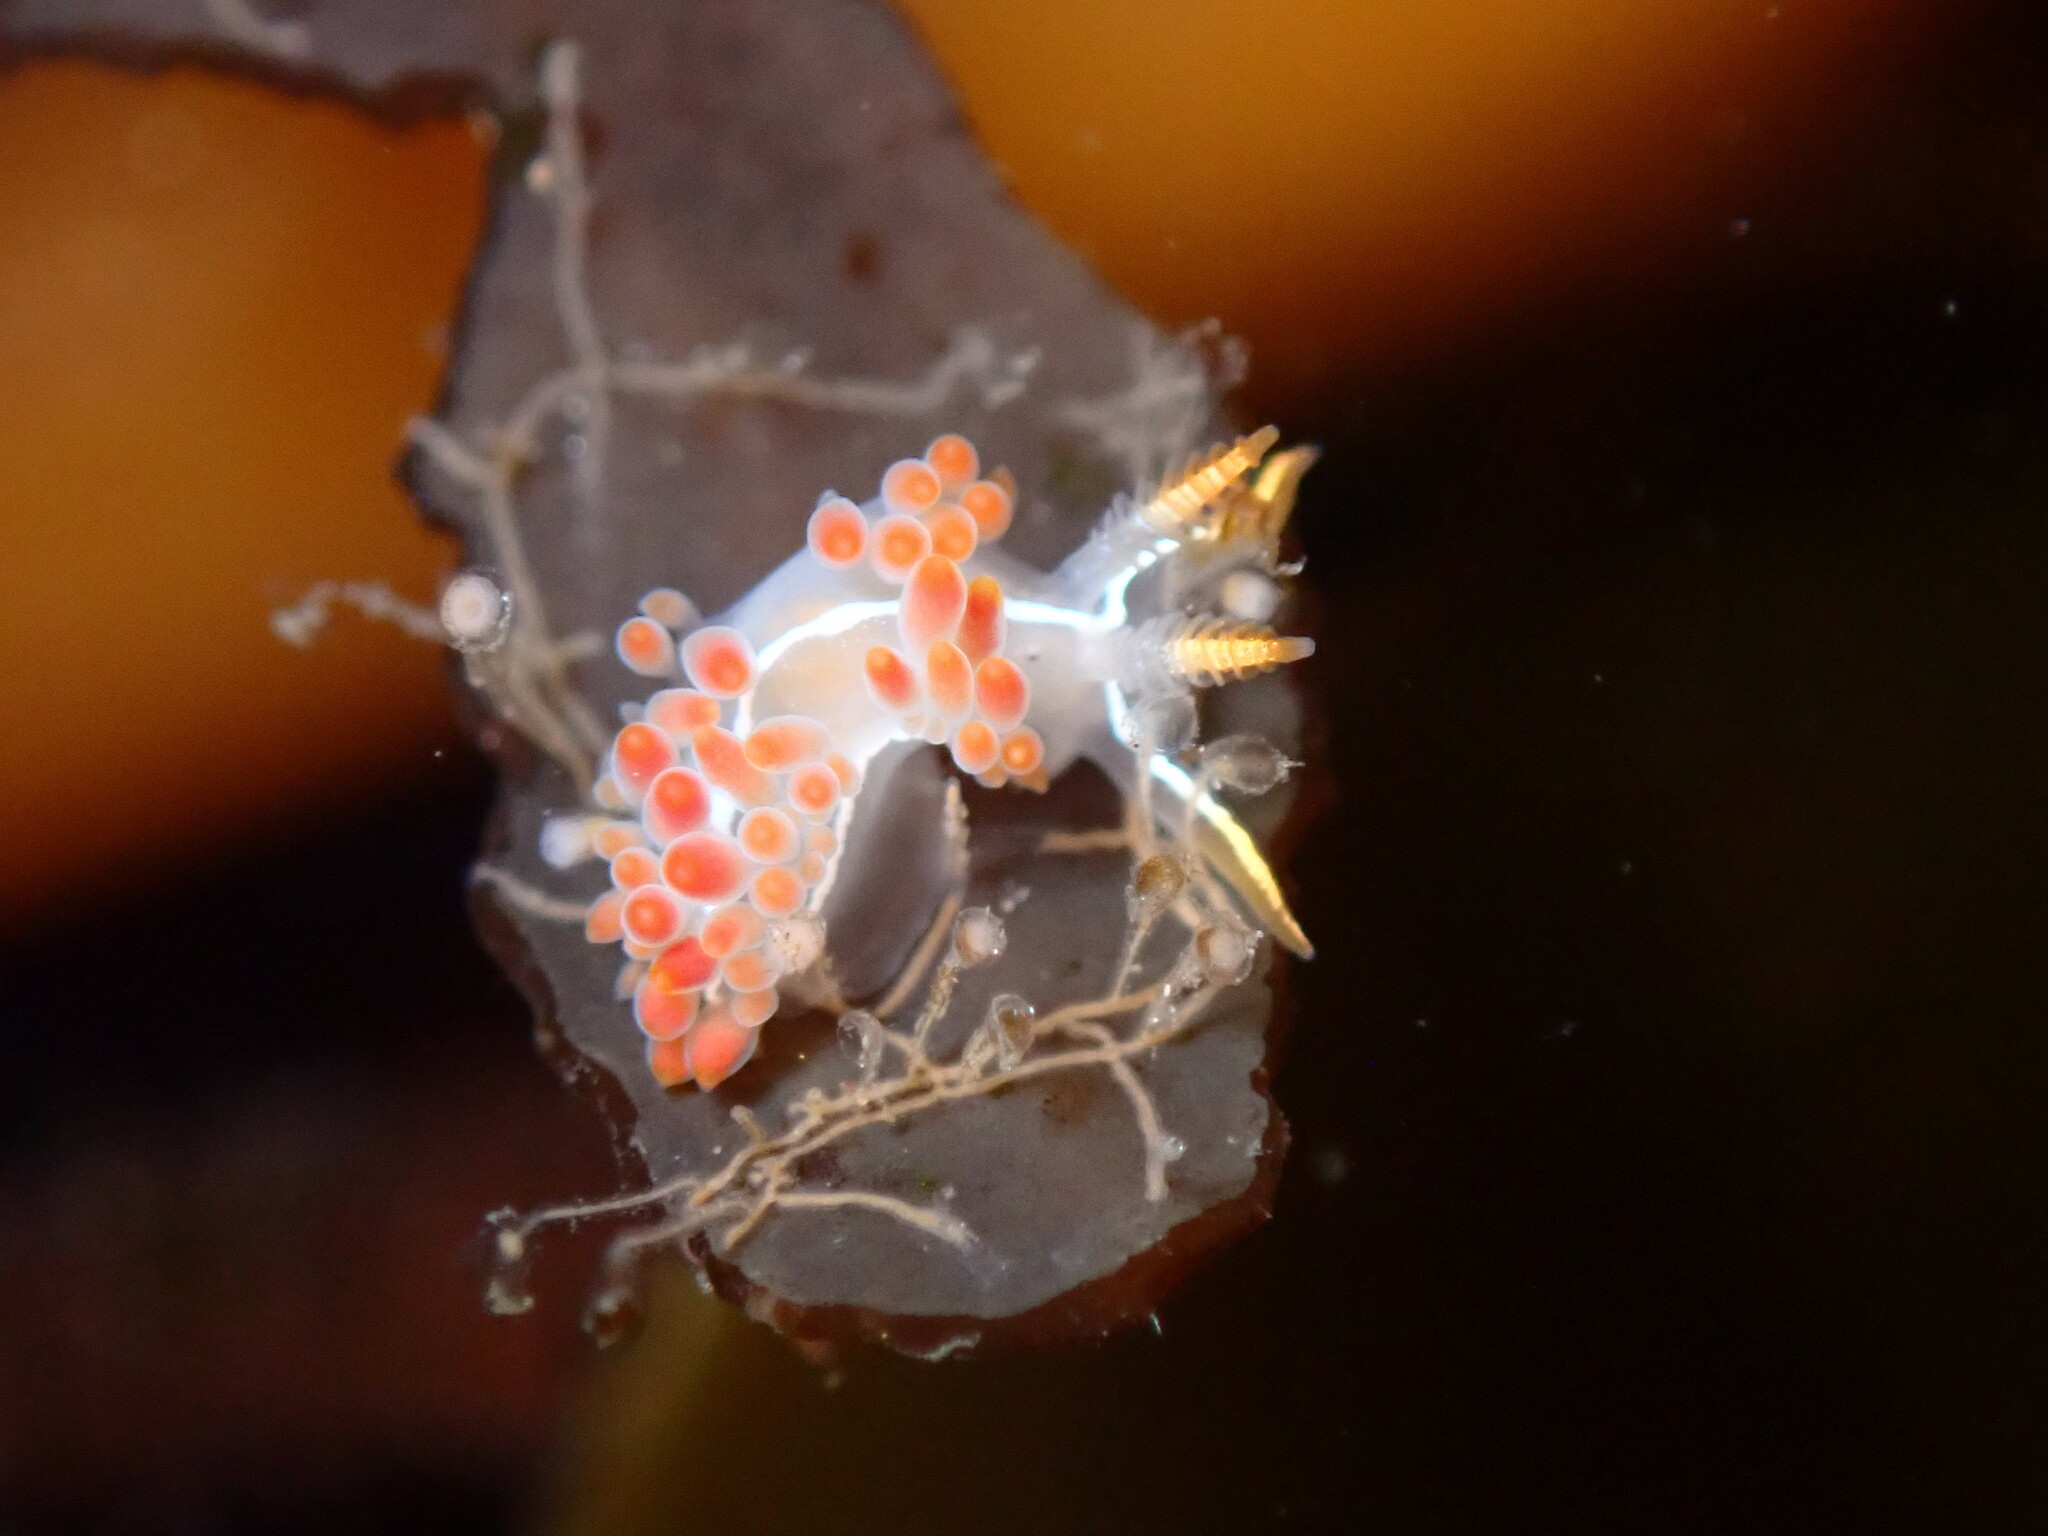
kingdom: Animalia
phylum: Mollusca
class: Gastropoda
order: Nudibranchia
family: Coryphellidae
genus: Coryphella
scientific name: Coryphella trilineata
